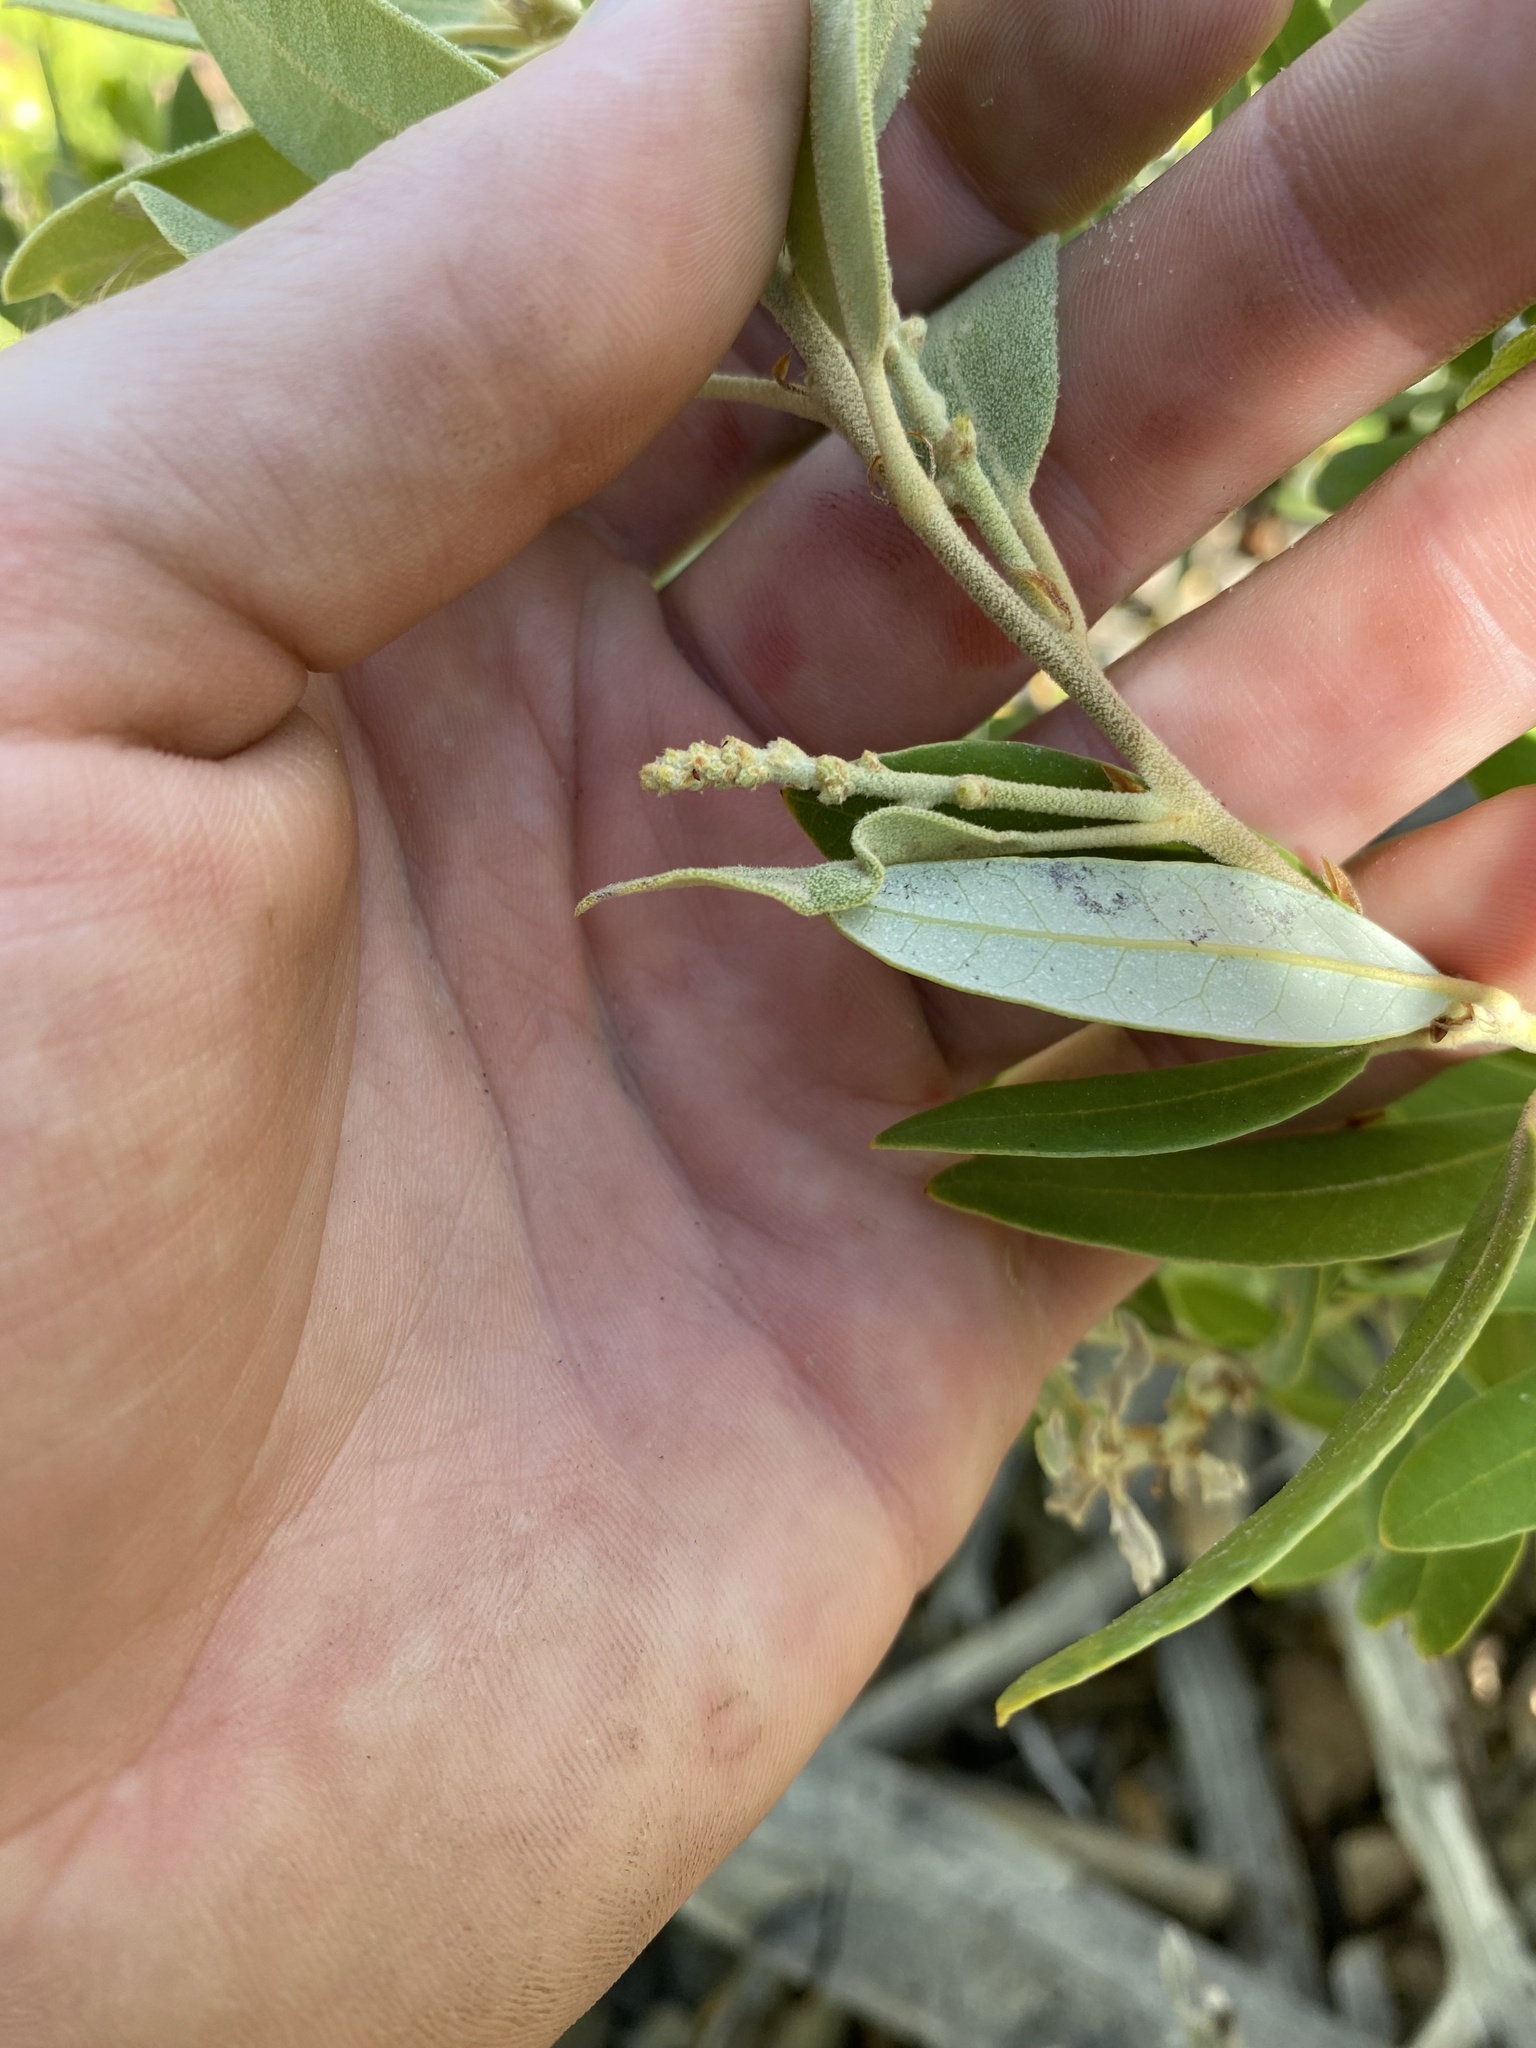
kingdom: Plantae
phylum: Tracheophyta
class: Magnoliopsida
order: Fagales
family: Fagaceae
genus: Notholithocarpus
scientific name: Notholithocarpus densiflorus
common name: Tan bark oak
